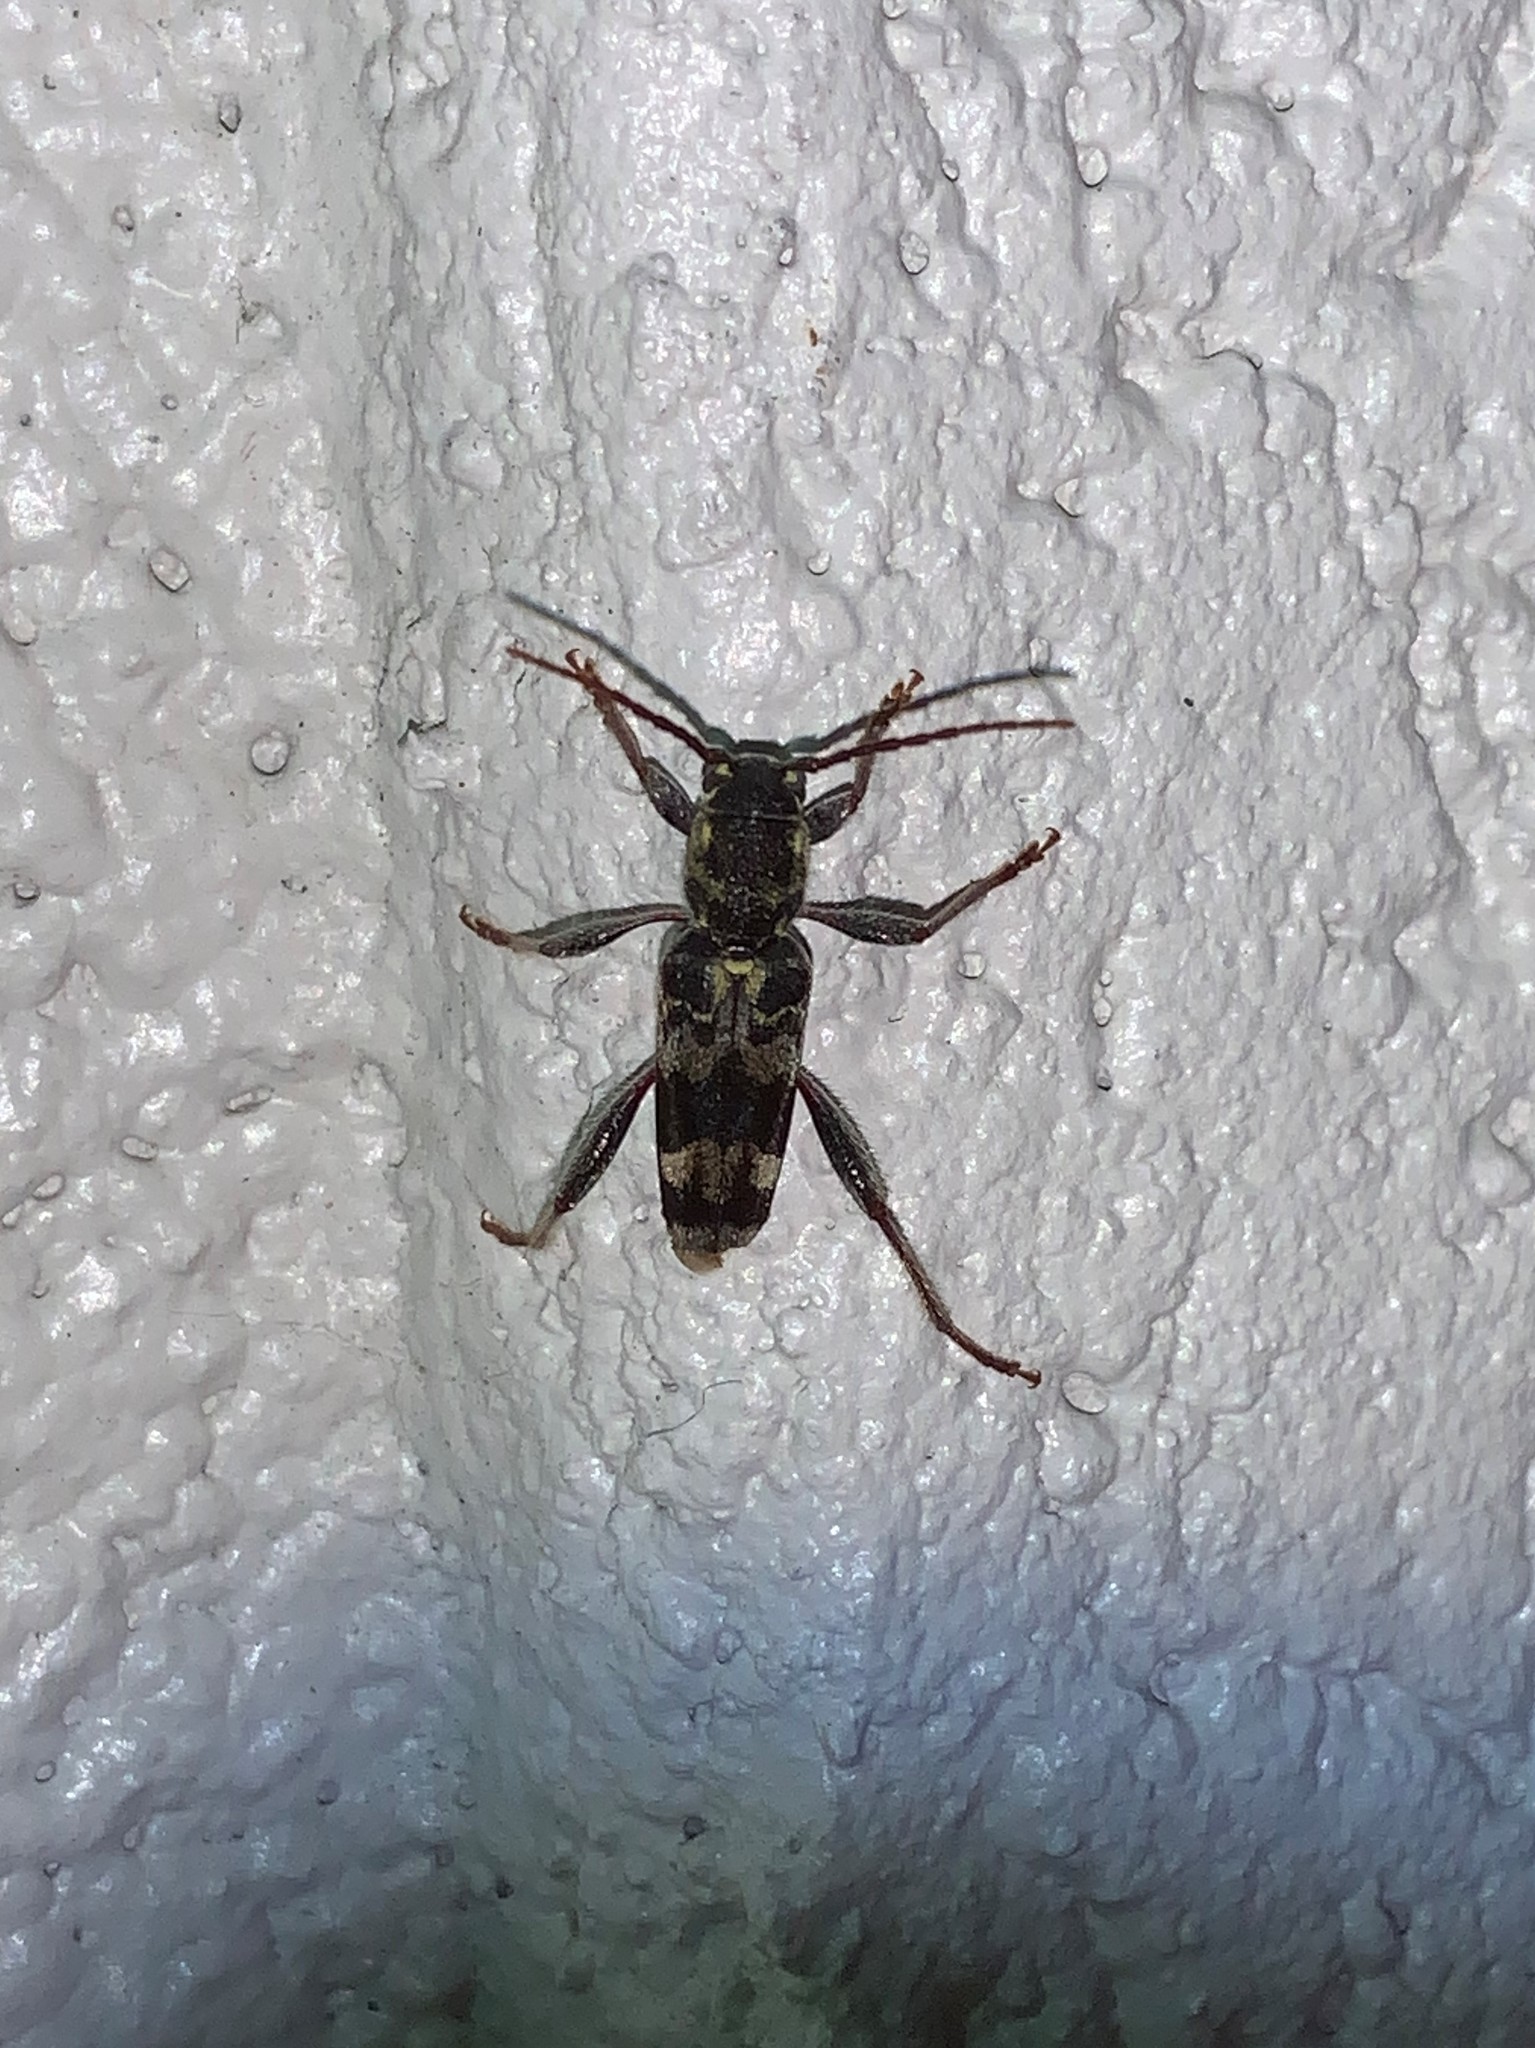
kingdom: Animalia
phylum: Arthropoda
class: Insecta
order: Coleoptera
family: Cerambycidae
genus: Xylotrechus
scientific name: Xylotrechus colonus
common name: Long-horned beetle
